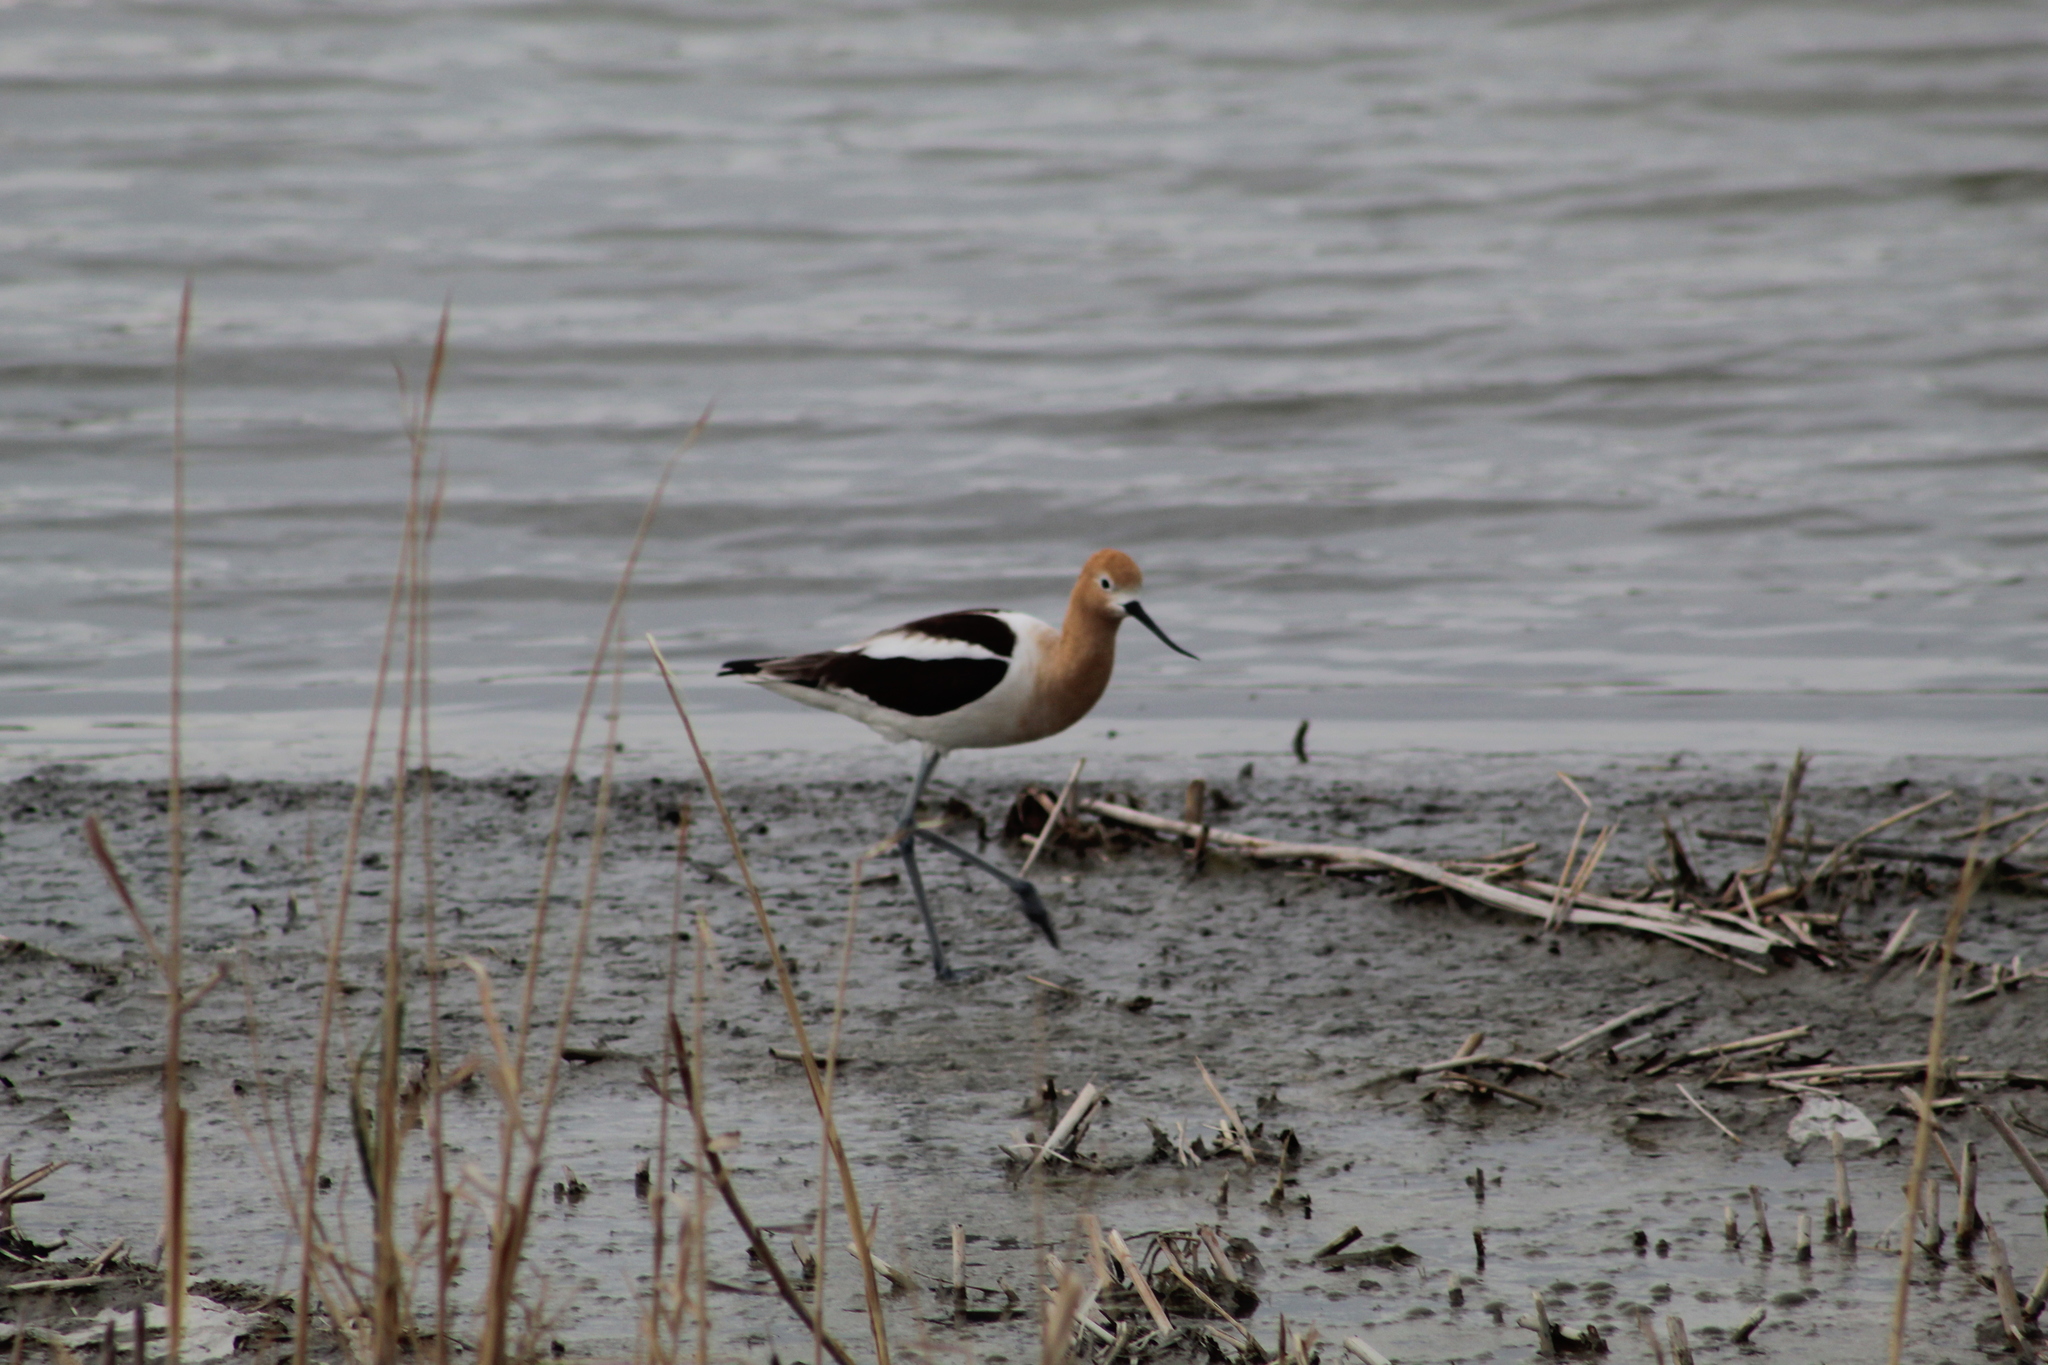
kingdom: Animalia
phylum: Chordata
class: Aves
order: Charadriiformes
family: Recurvirostridae
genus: Recurvirostra
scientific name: Recurvirostra americana
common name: American avocet
